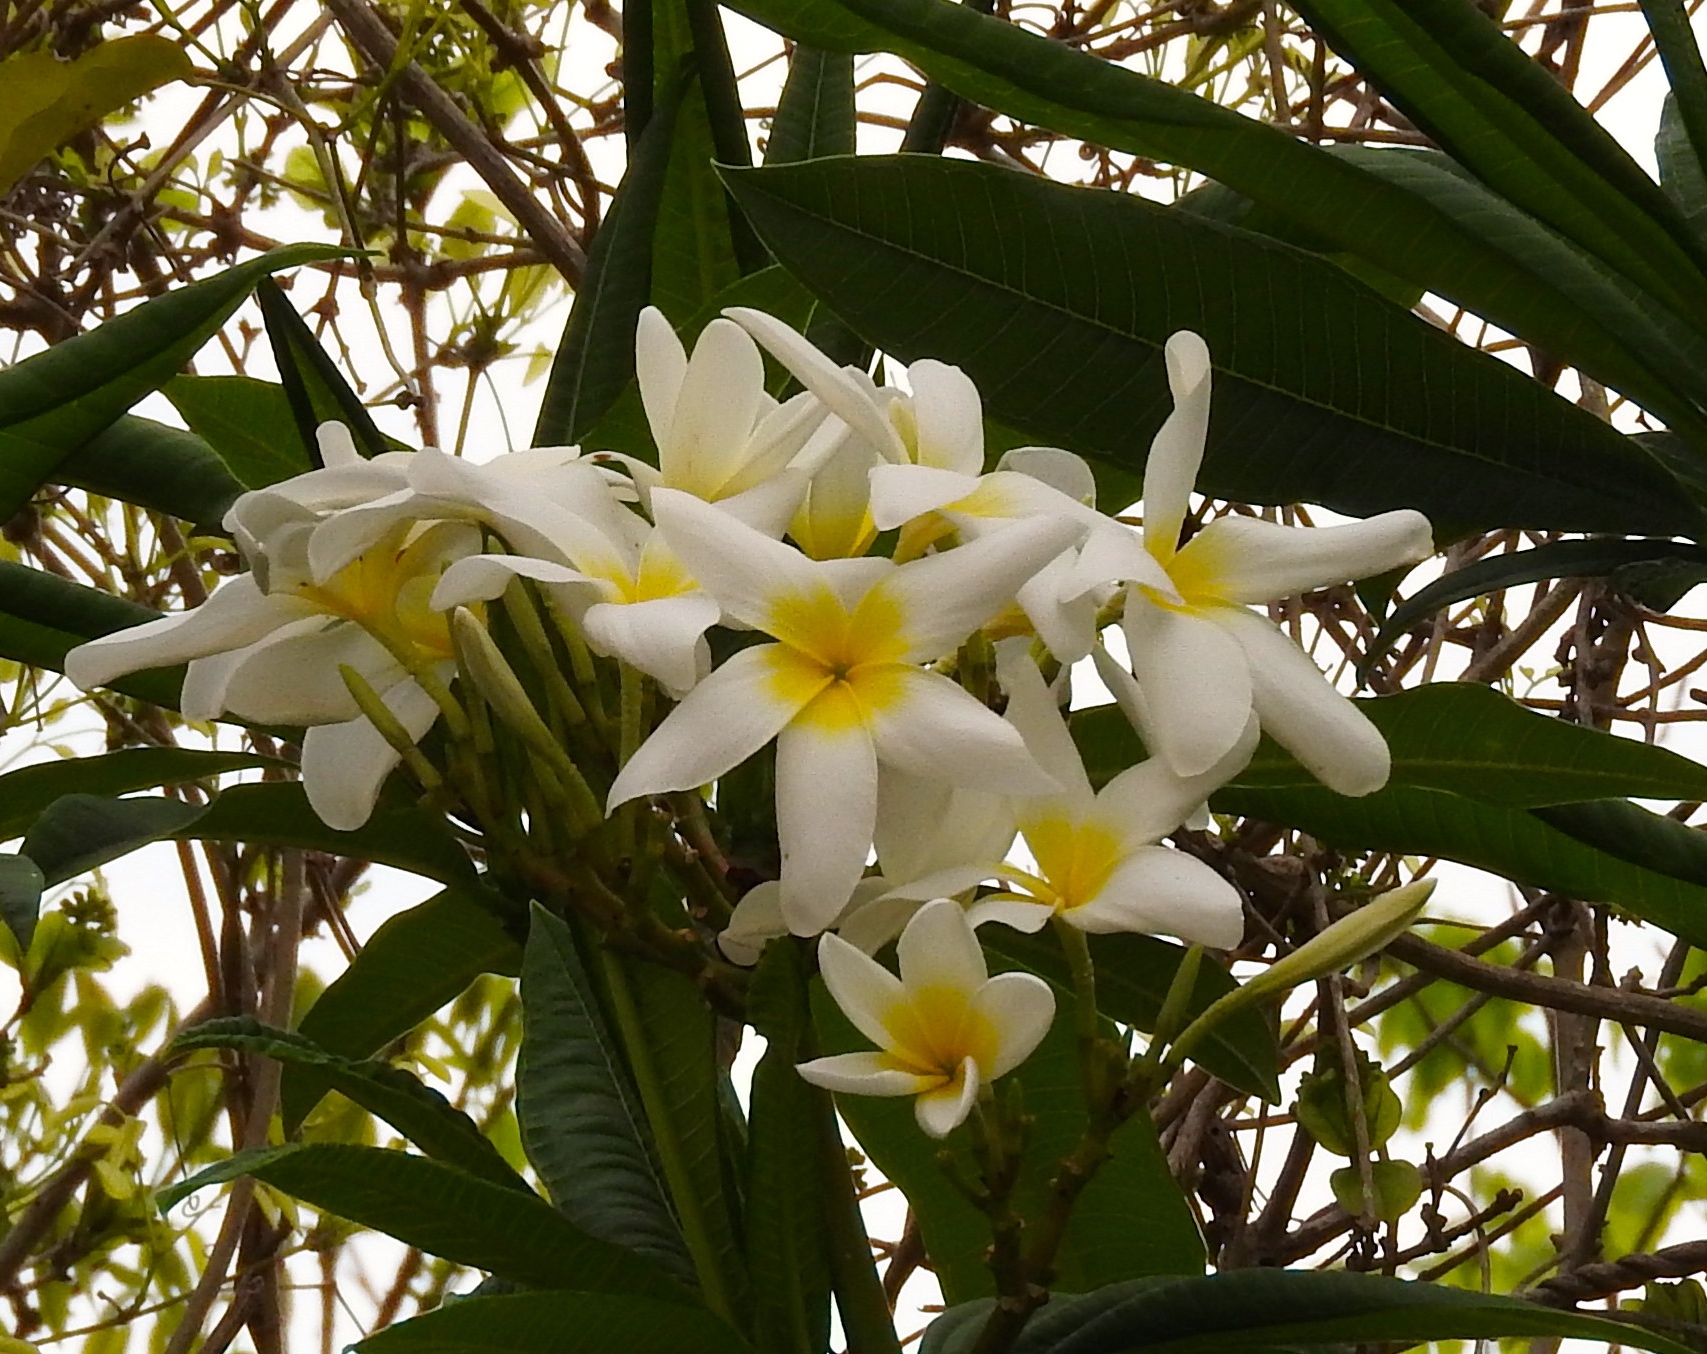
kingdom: Plantae
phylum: Tracheophyta
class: Magnoliopsida
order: Gentianales
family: Apocynaceae
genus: Plumeria
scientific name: Plumeria rubra
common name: Pagoda-tree
